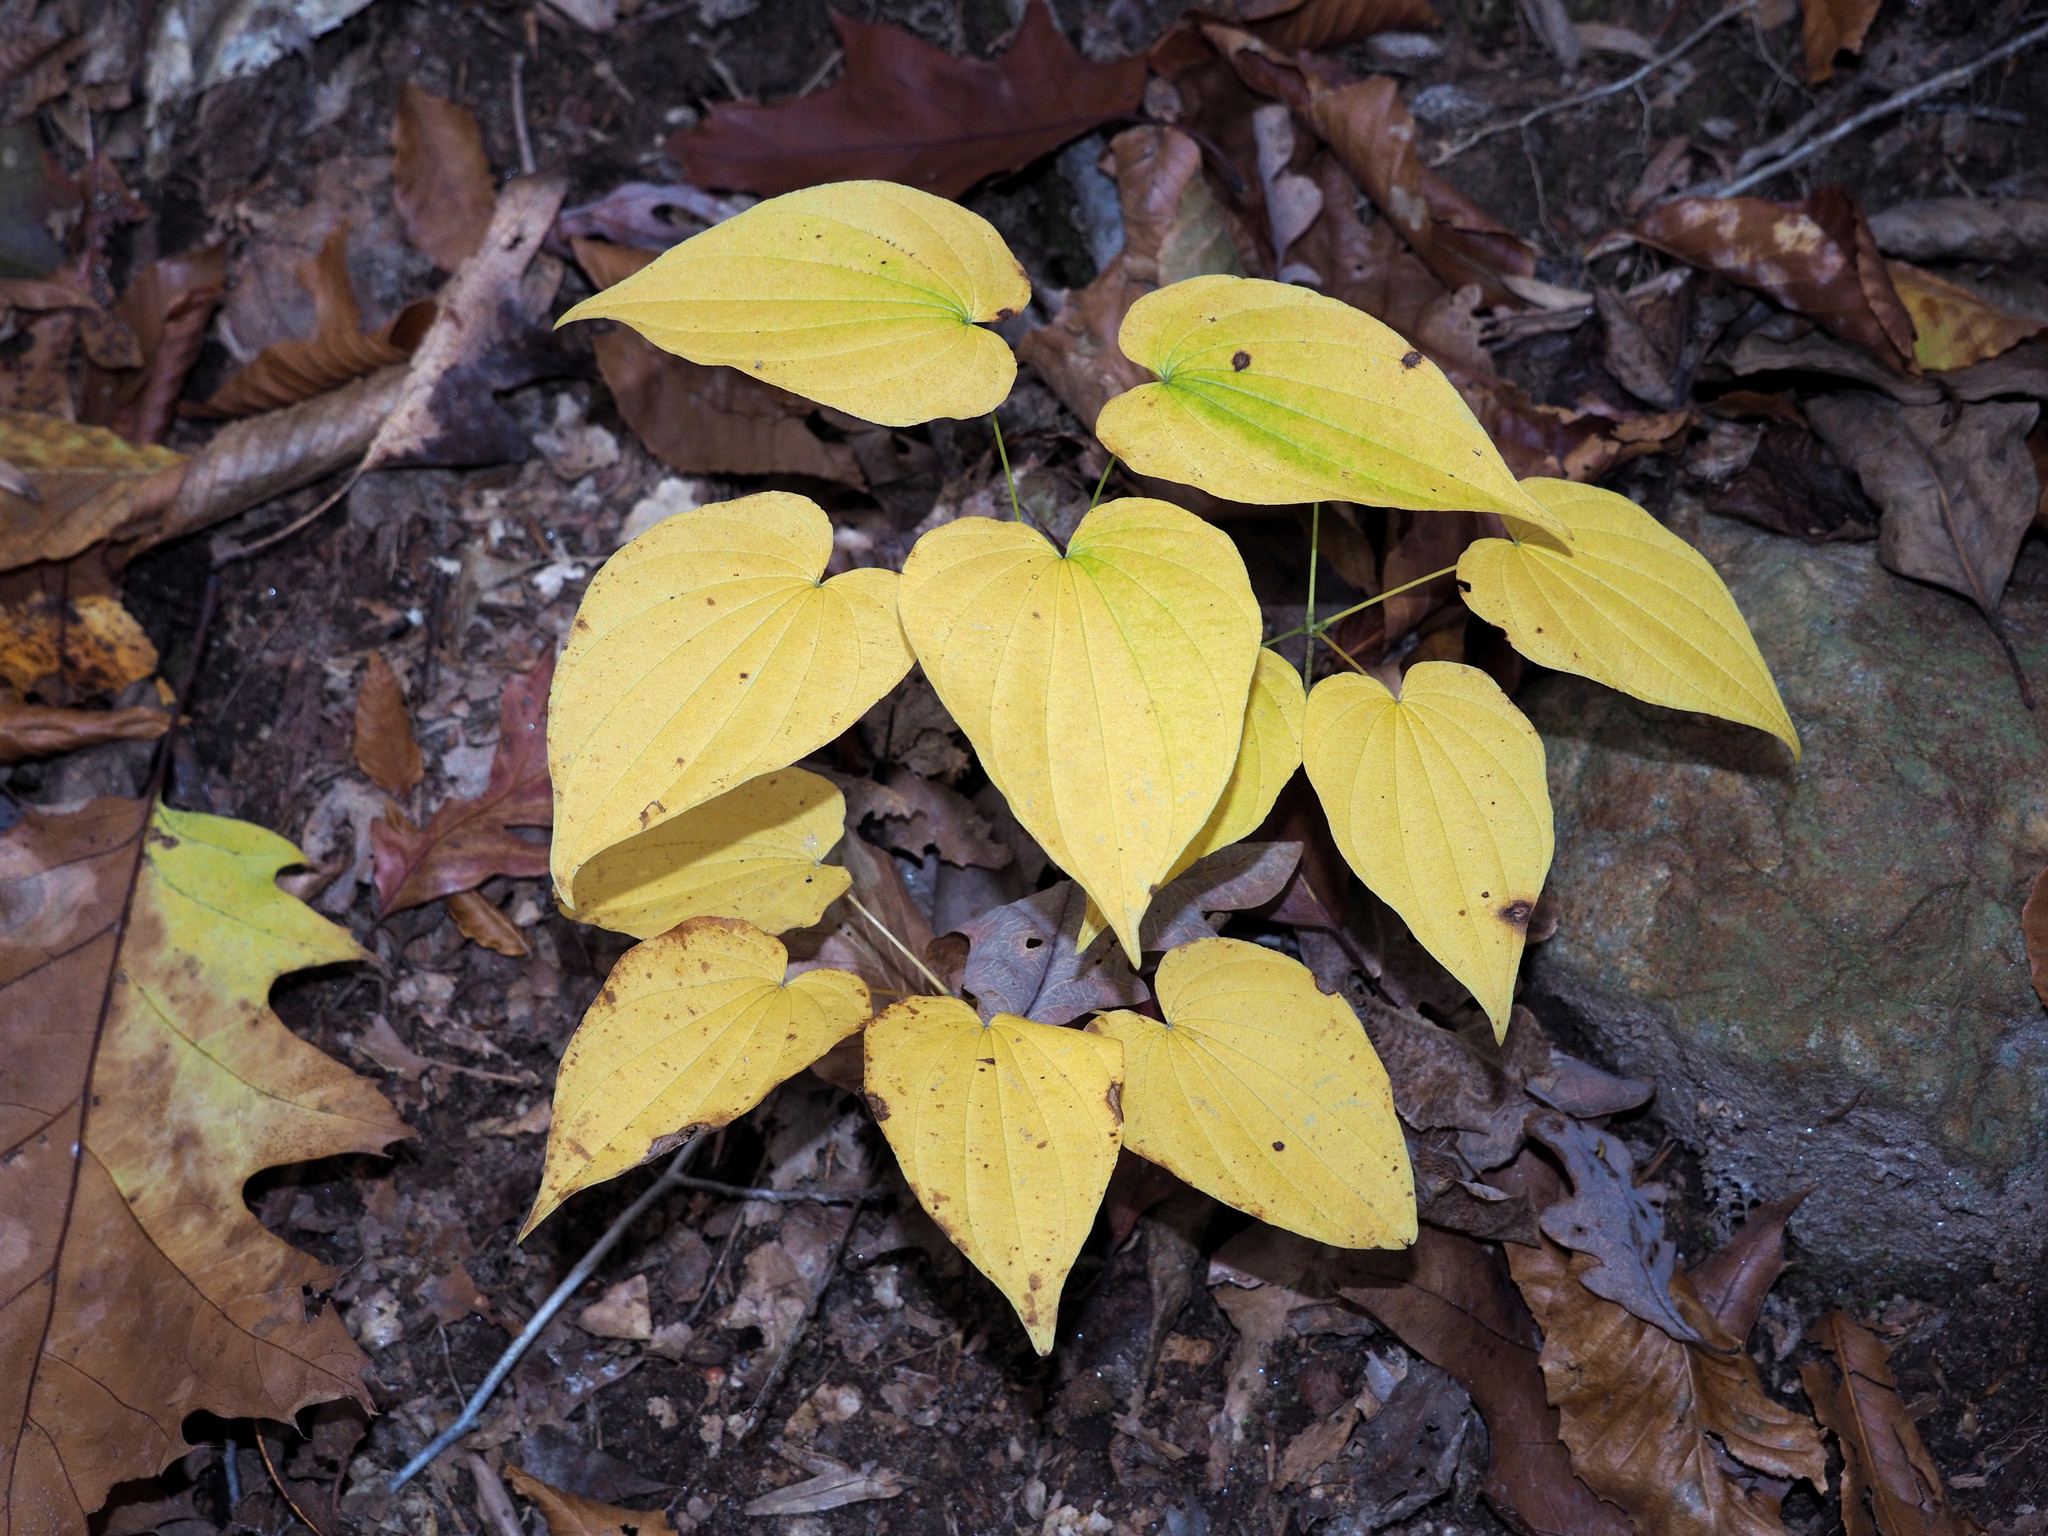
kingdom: Plantae
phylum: Tracheophyta
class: Liliopsida
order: Dioscoreales
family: Dioscoreaceae
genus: Dioscorea
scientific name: Dioscorea villosa
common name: Wild yam
